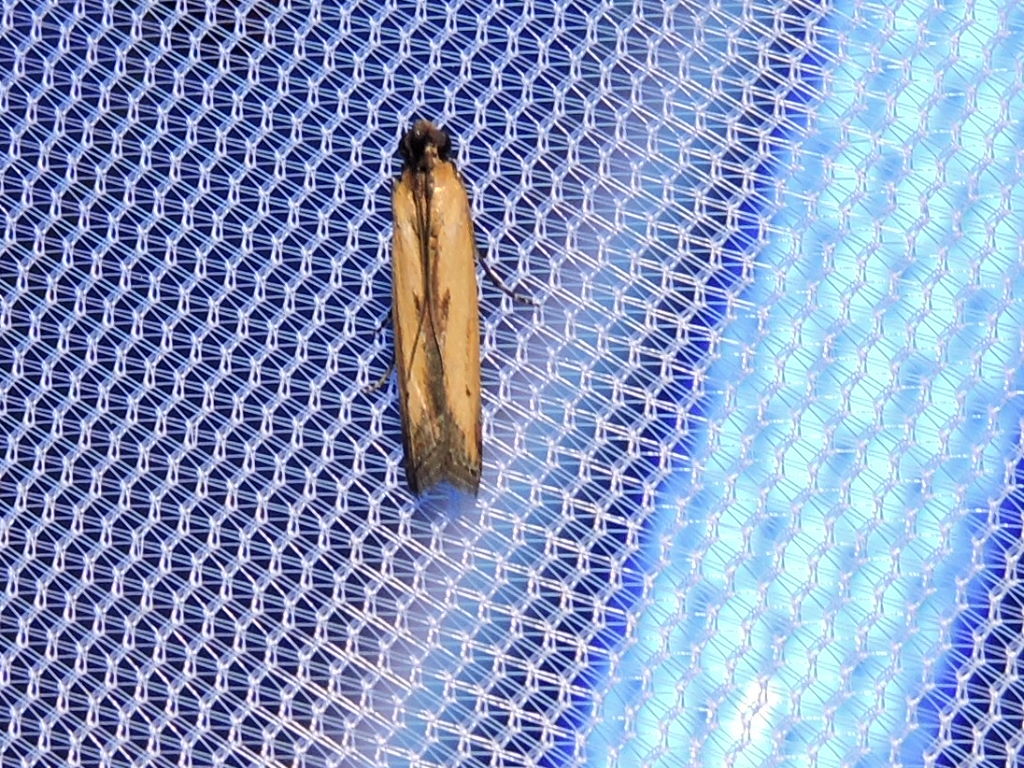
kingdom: Animalia
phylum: Arthropoda
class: Insecta
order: Lepidoptera
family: Pyralidae
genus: Elasmopalpus
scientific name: Elasmopalpus lignosella
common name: Lesser cornstalk borer
